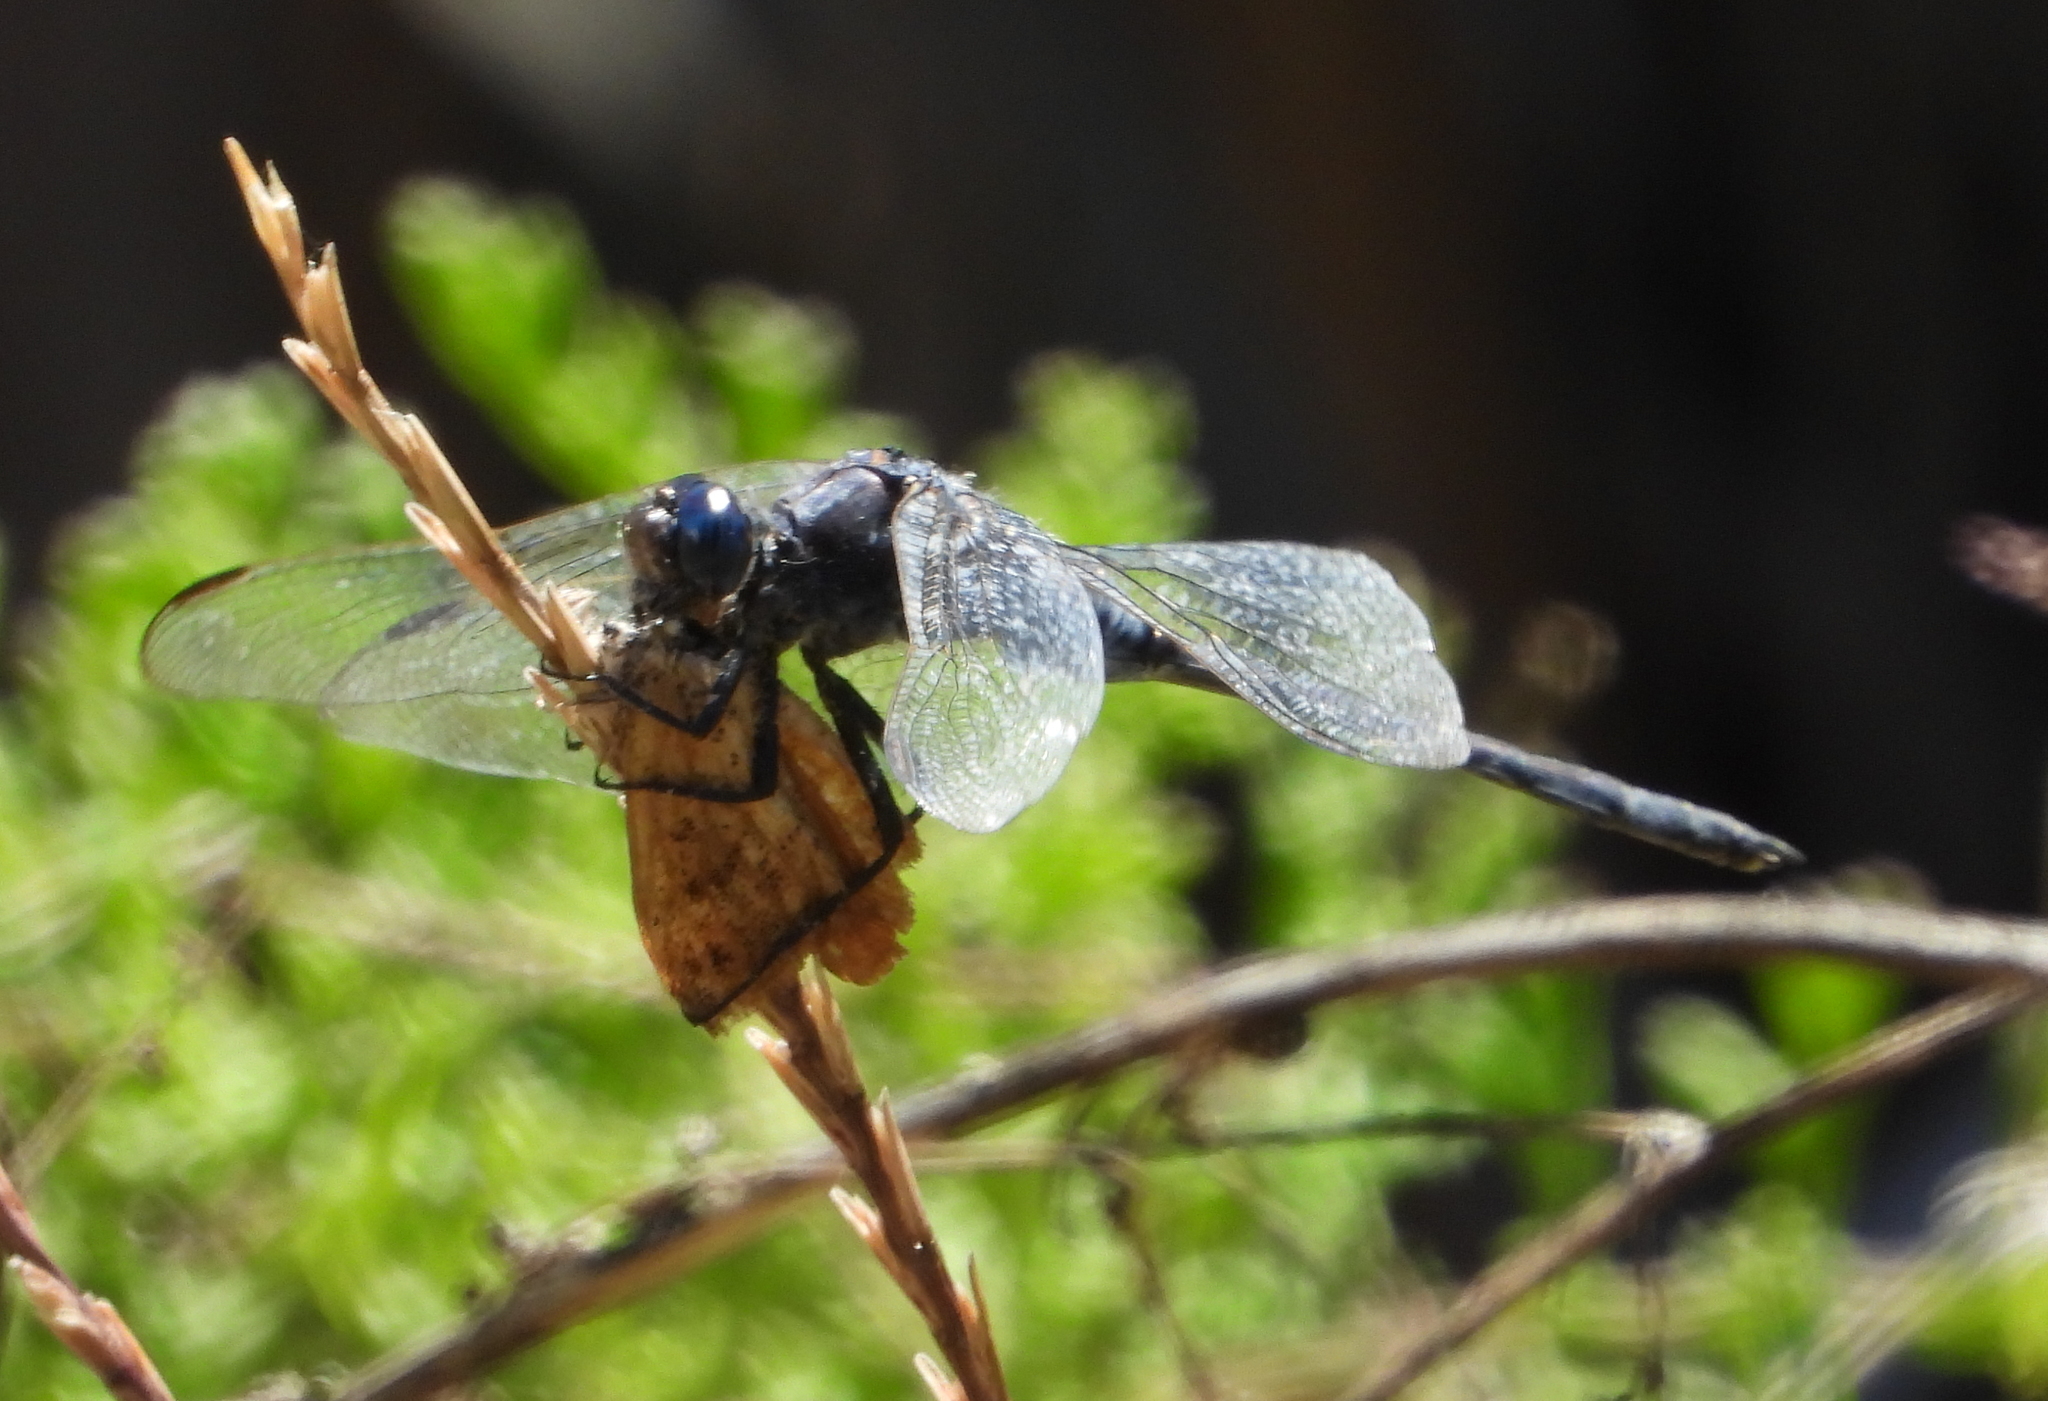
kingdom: Animalia
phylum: Arthropoda
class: Insecta
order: Odonata
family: Libellulidae
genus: Orthetrum
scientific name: Orthetrum trinacria
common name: Long skimmer
